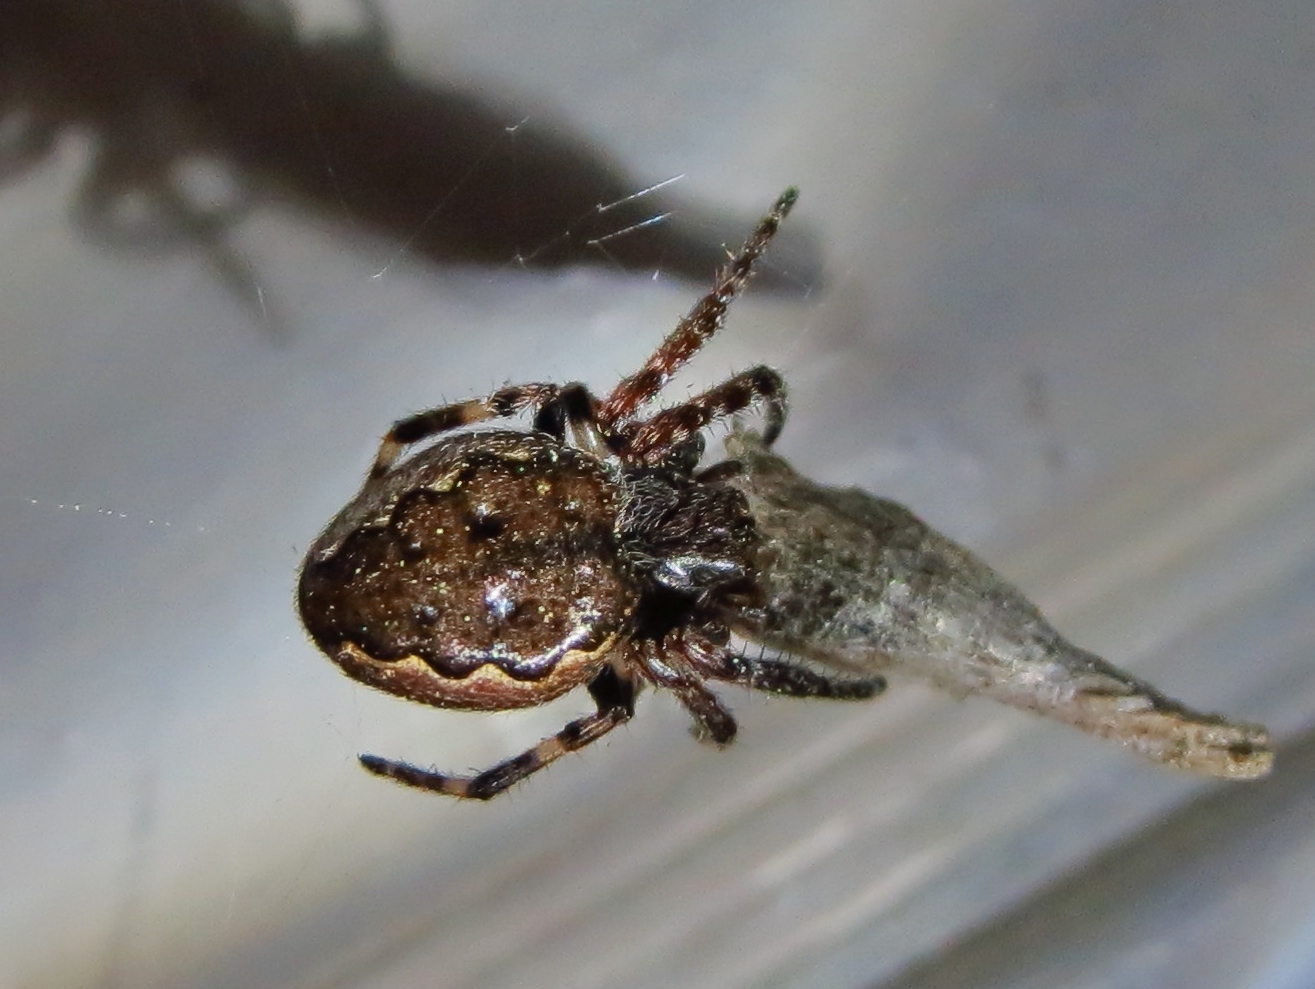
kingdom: Animalia
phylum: Arthropoda
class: Arachnida
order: Araneae
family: Araneidae
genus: Nuctenea
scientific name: Nuctenea umbratica
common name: Toad spider
